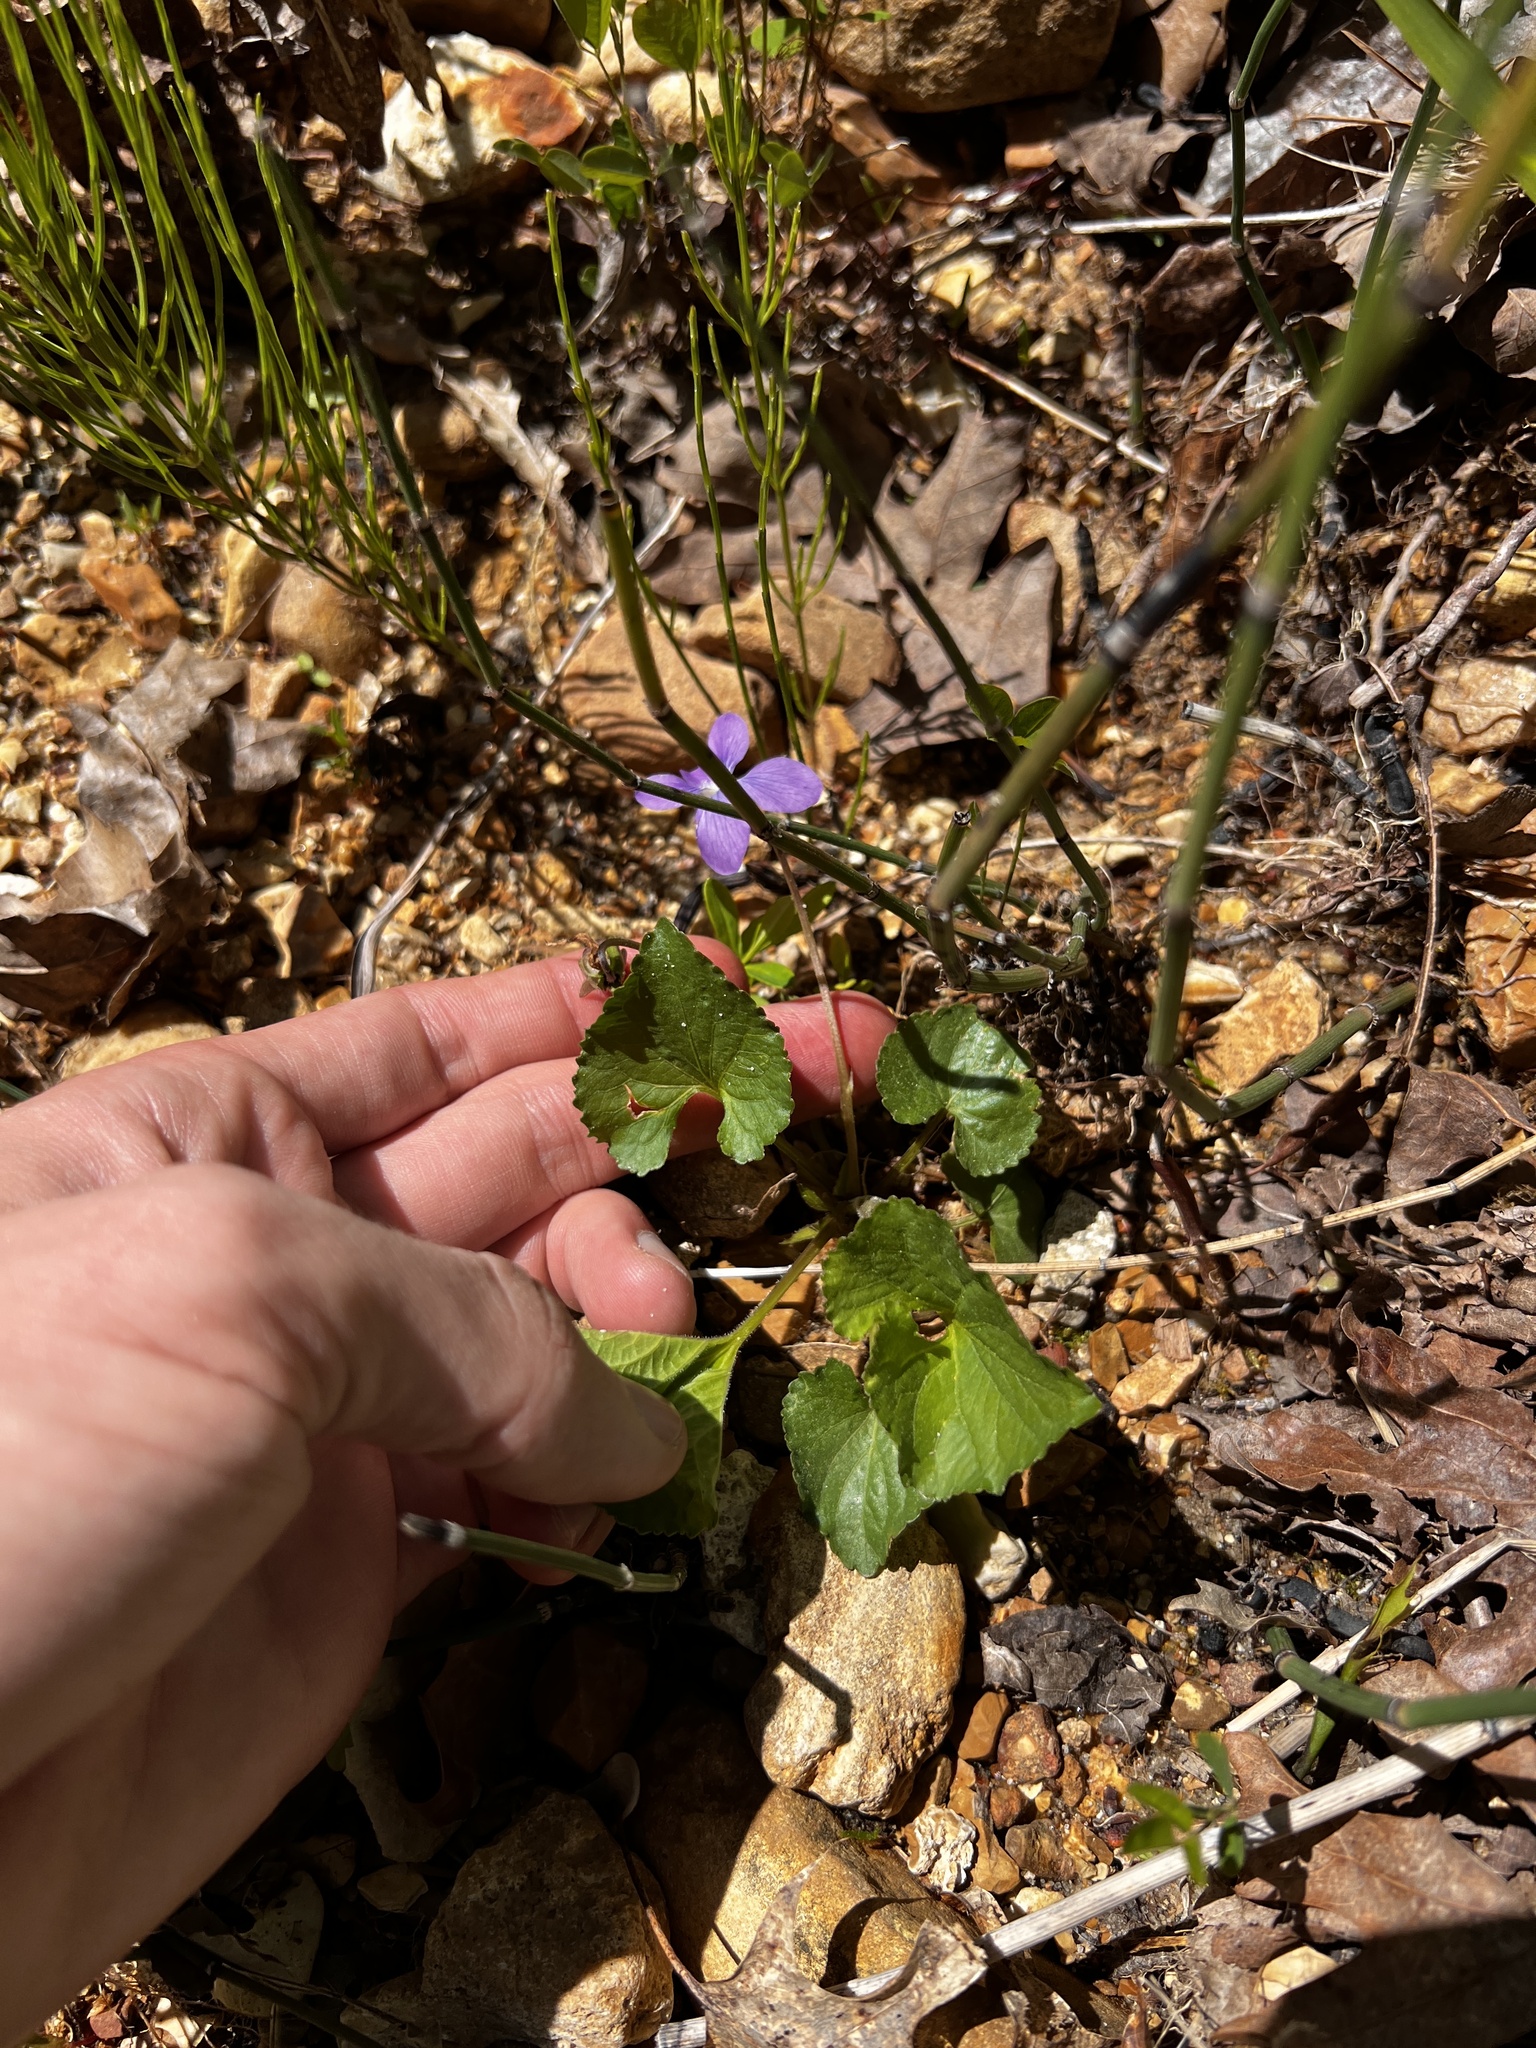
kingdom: Plantae
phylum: Tracheophyta
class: Magnoliopsida
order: Malpighiales
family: Violaceae
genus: Viola
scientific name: Viola affinis
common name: Leconte's violet
